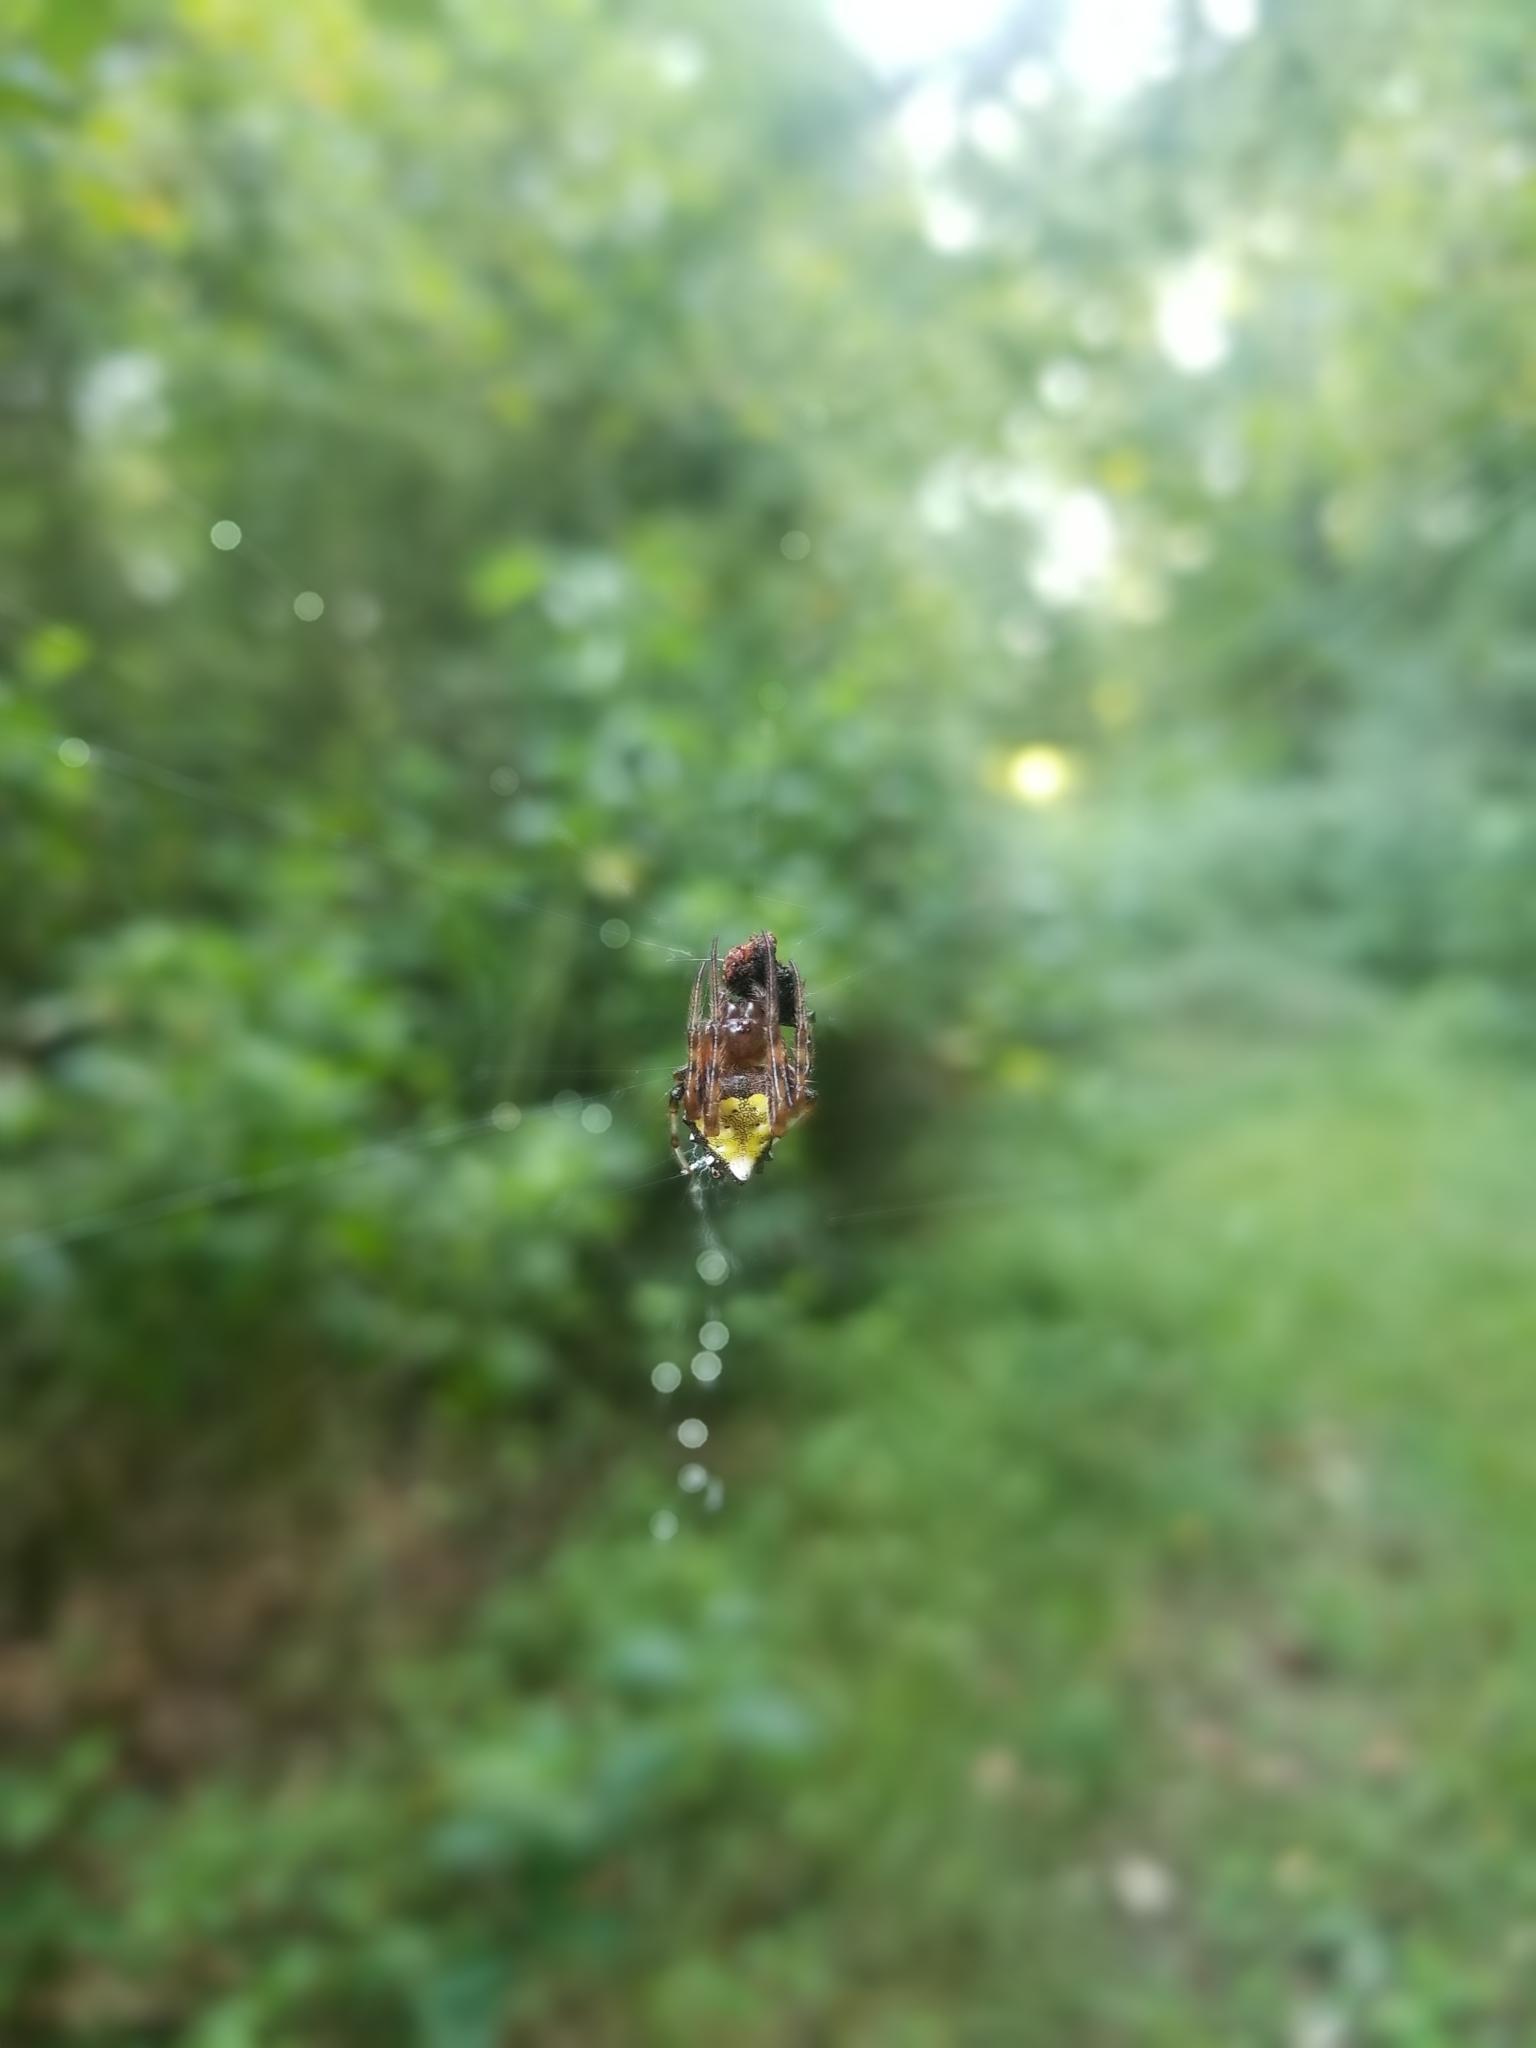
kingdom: Animalia
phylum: Arthropoda
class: Arachnida
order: Araneae
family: Araneidae
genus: Verrucosa
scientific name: Verrucosa arenata
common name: Orb weavers
